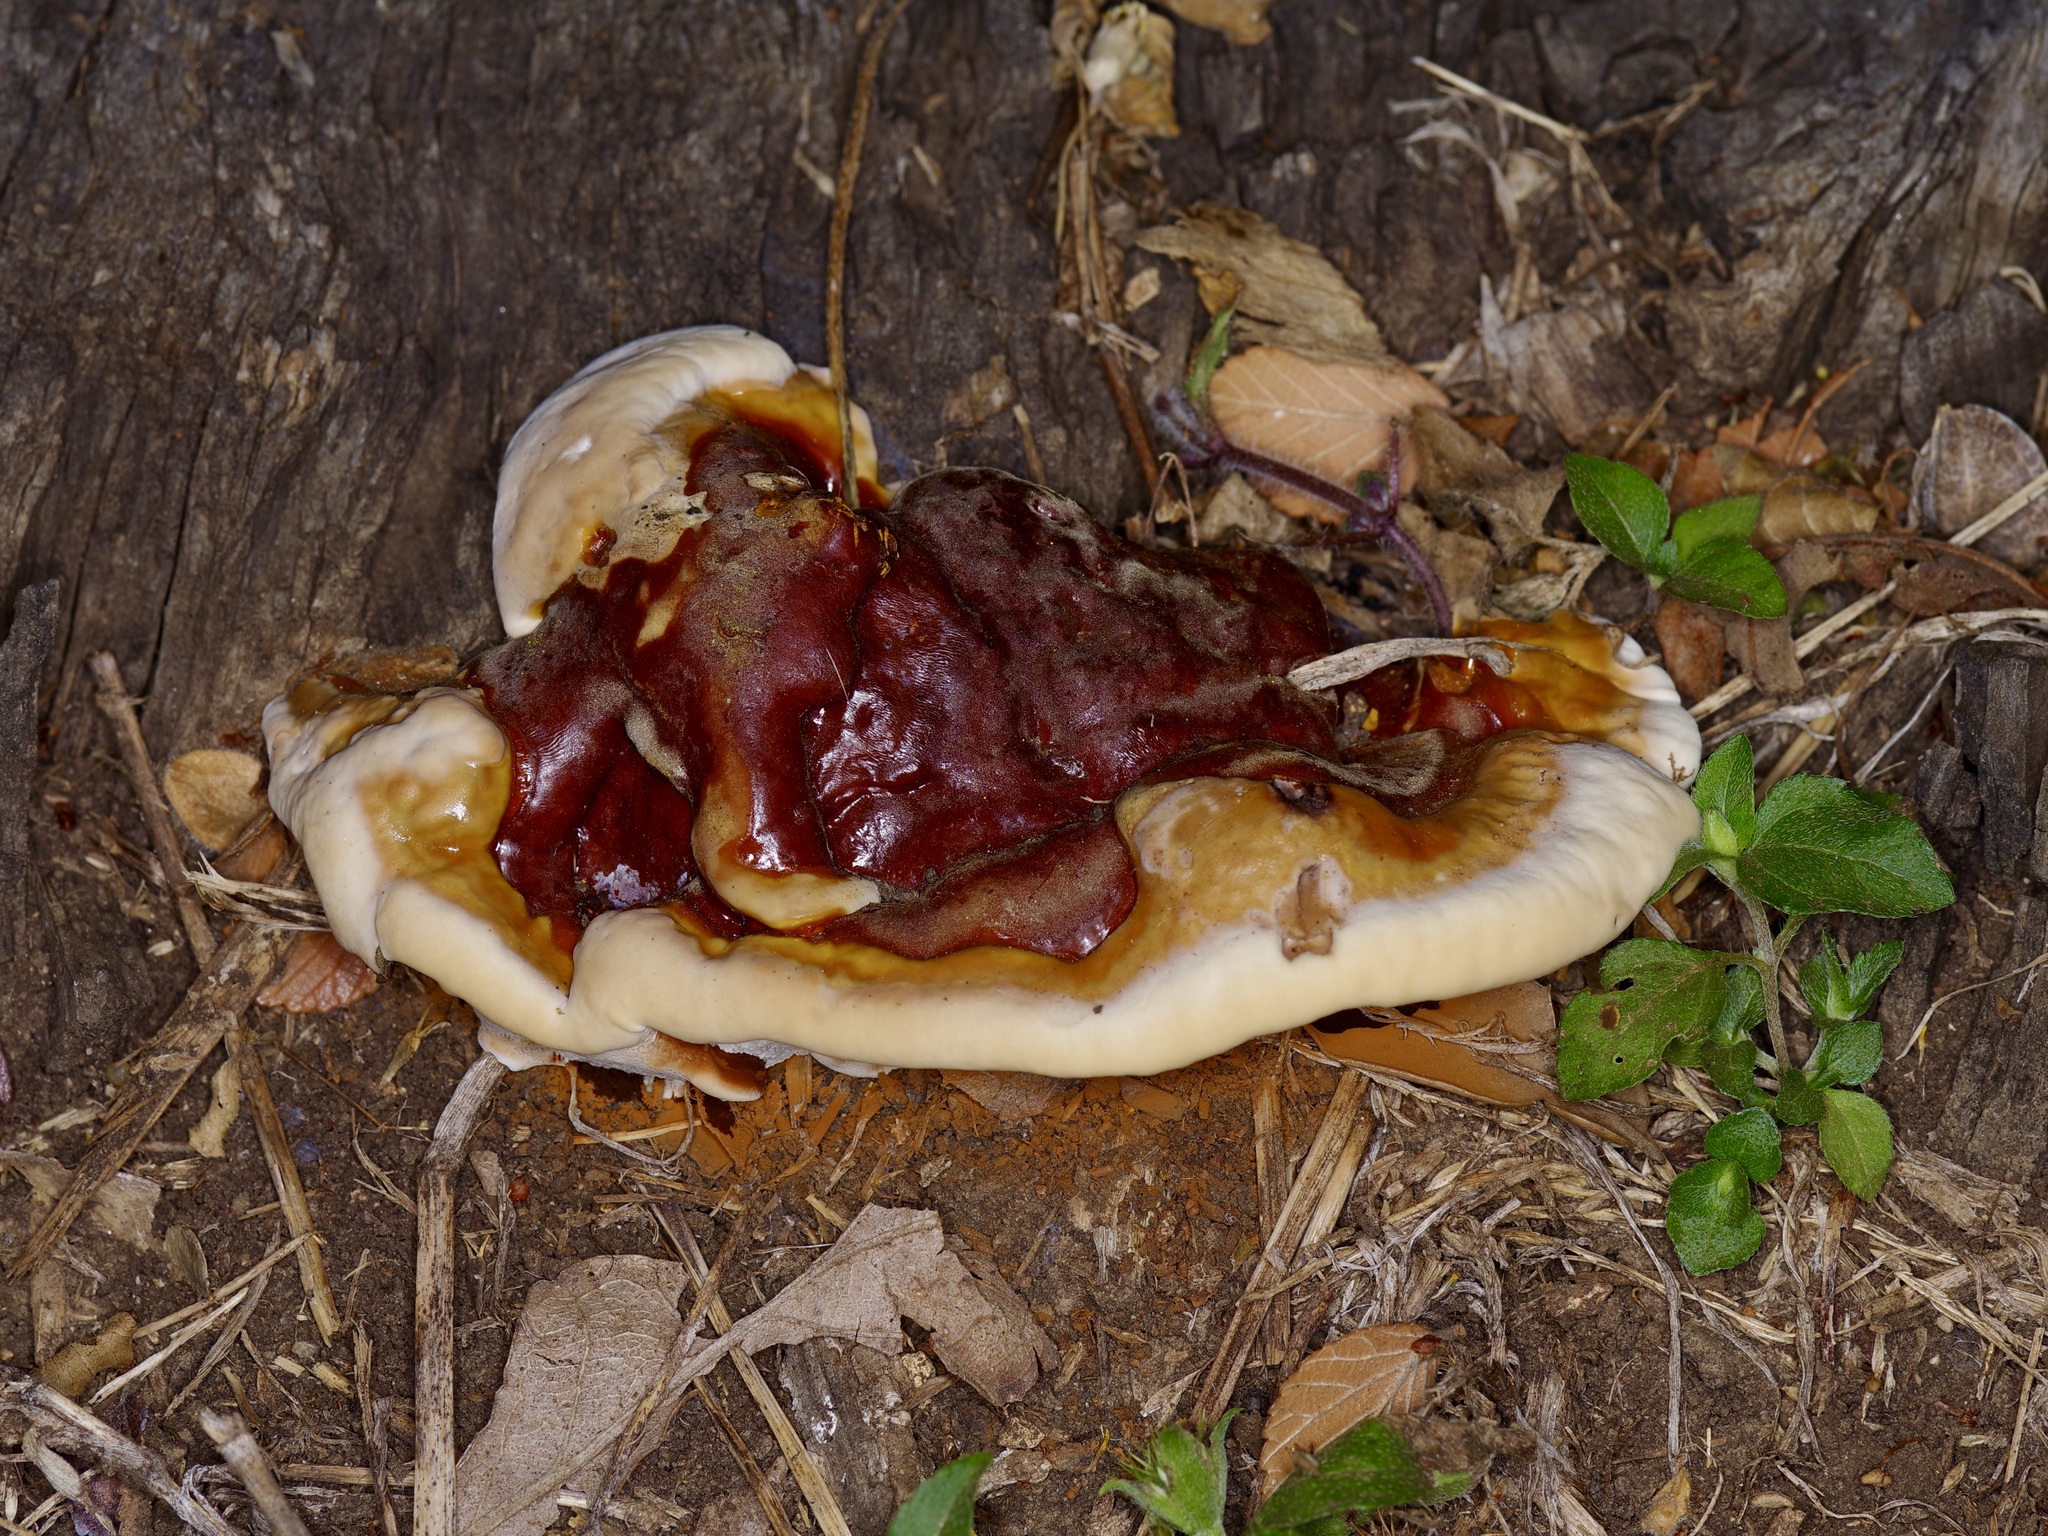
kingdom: Fungi
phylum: Basidiomycota
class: Agaricomycetes
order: Polyporales
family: Polyporaceae
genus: Ganoderma
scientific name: Ganoderma resinaceum
